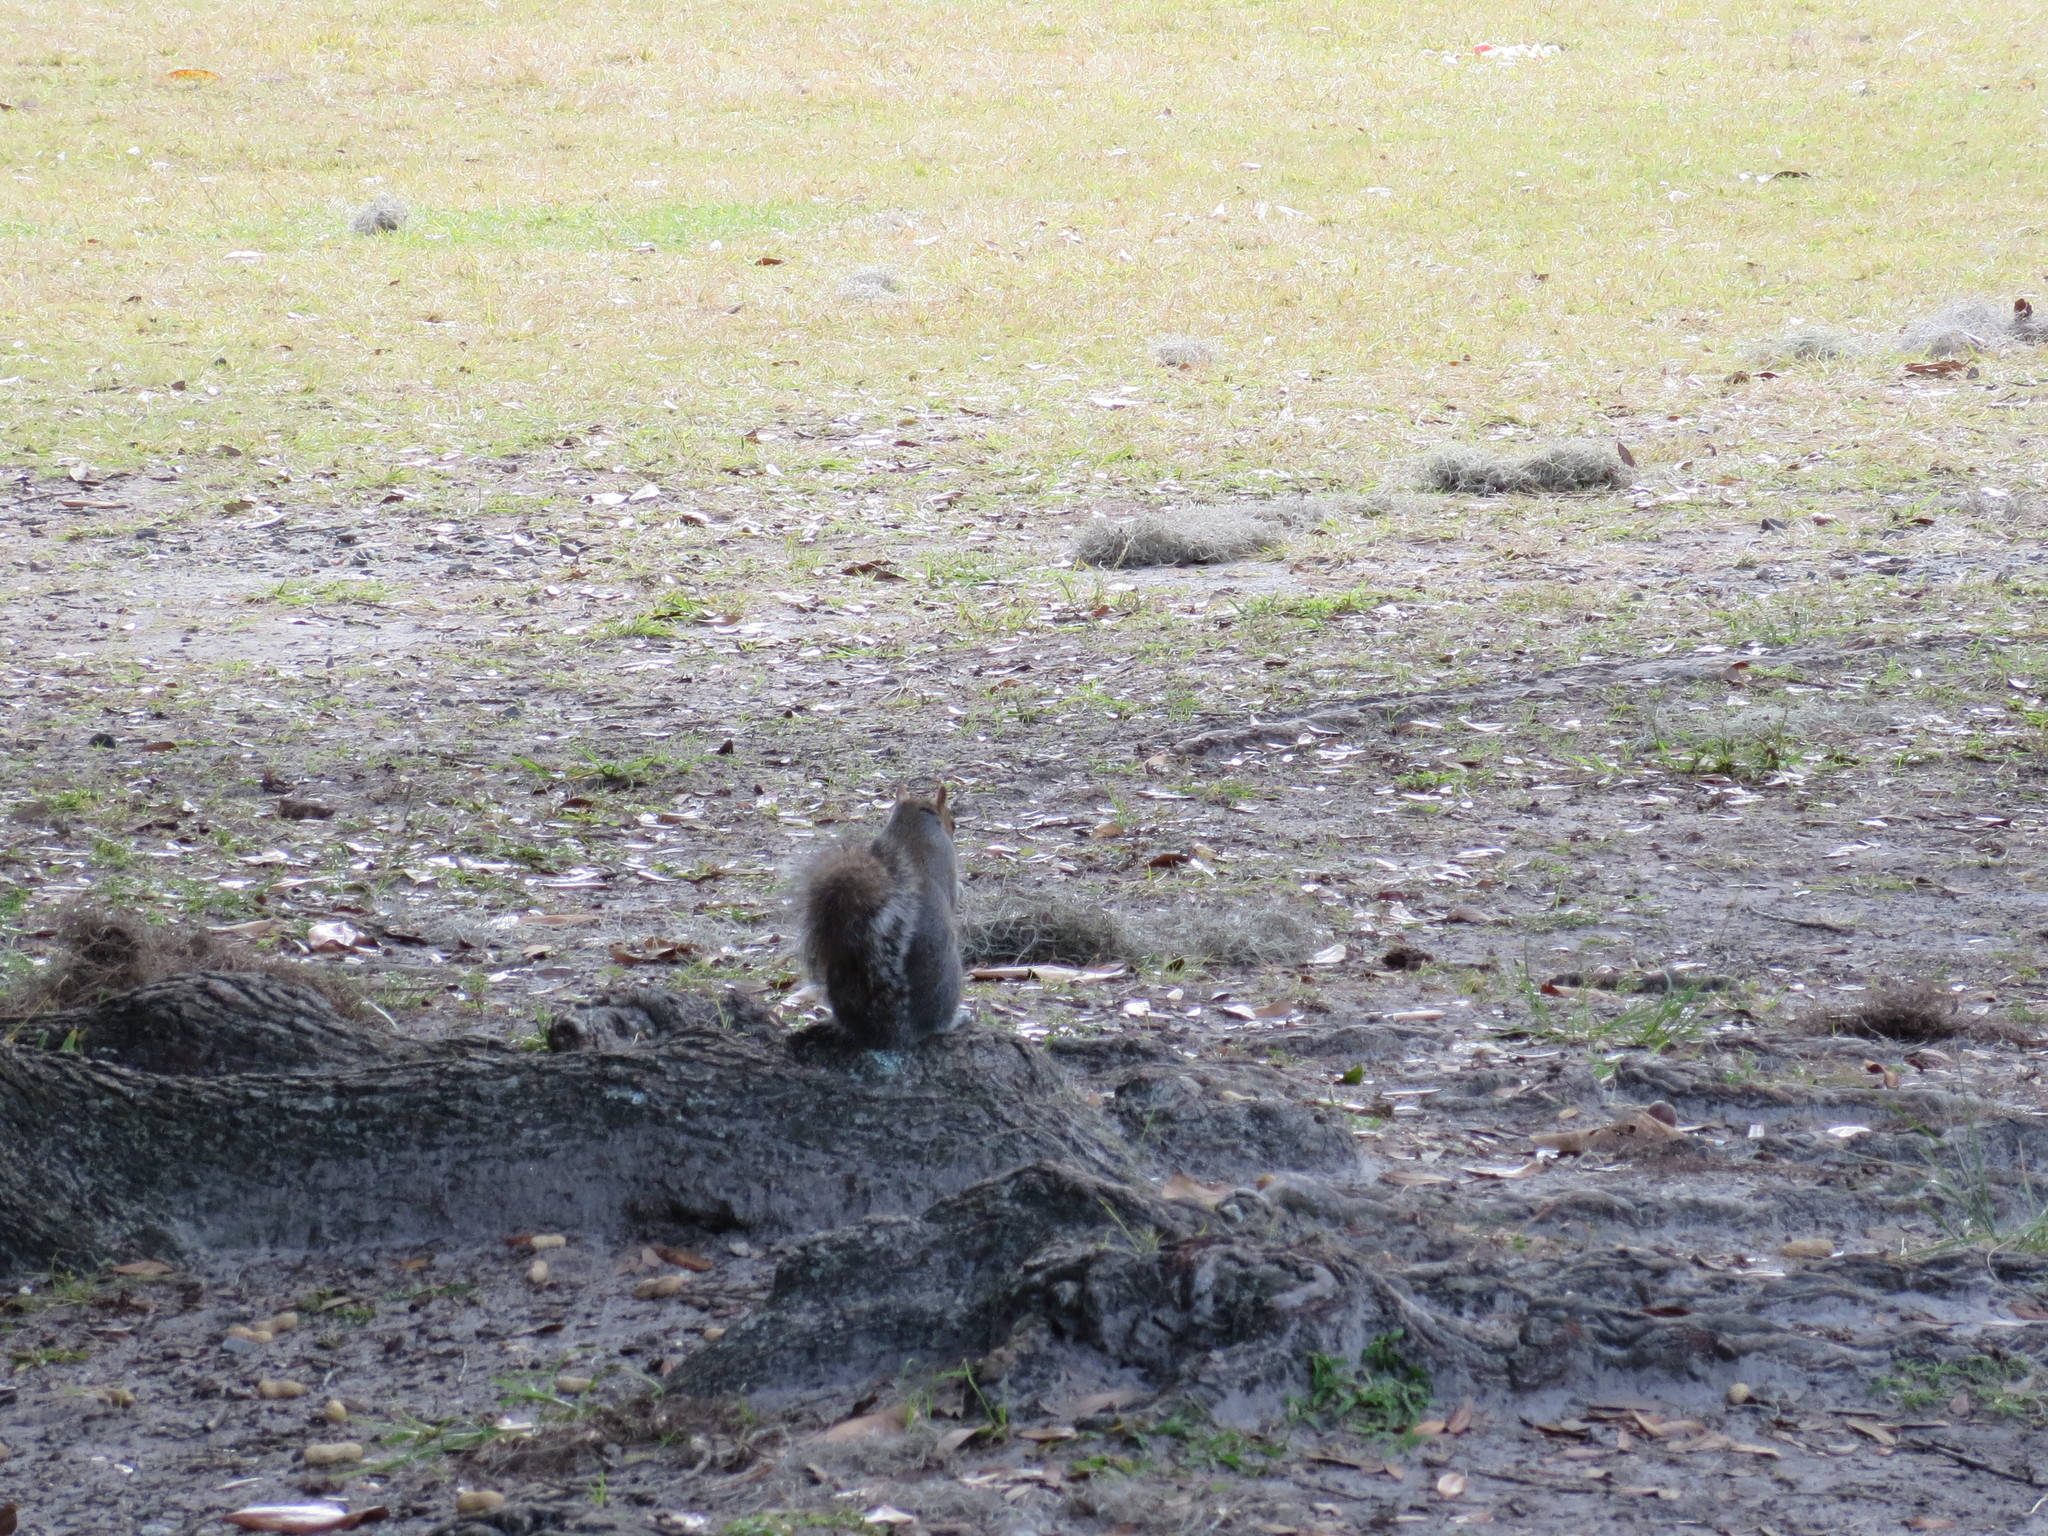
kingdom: Animalia
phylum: Chordata
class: Mammalia
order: Rodentia
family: Sciuridae
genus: Sciurus
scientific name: Sciurus carolinensis
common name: Eastern gray squirrel
